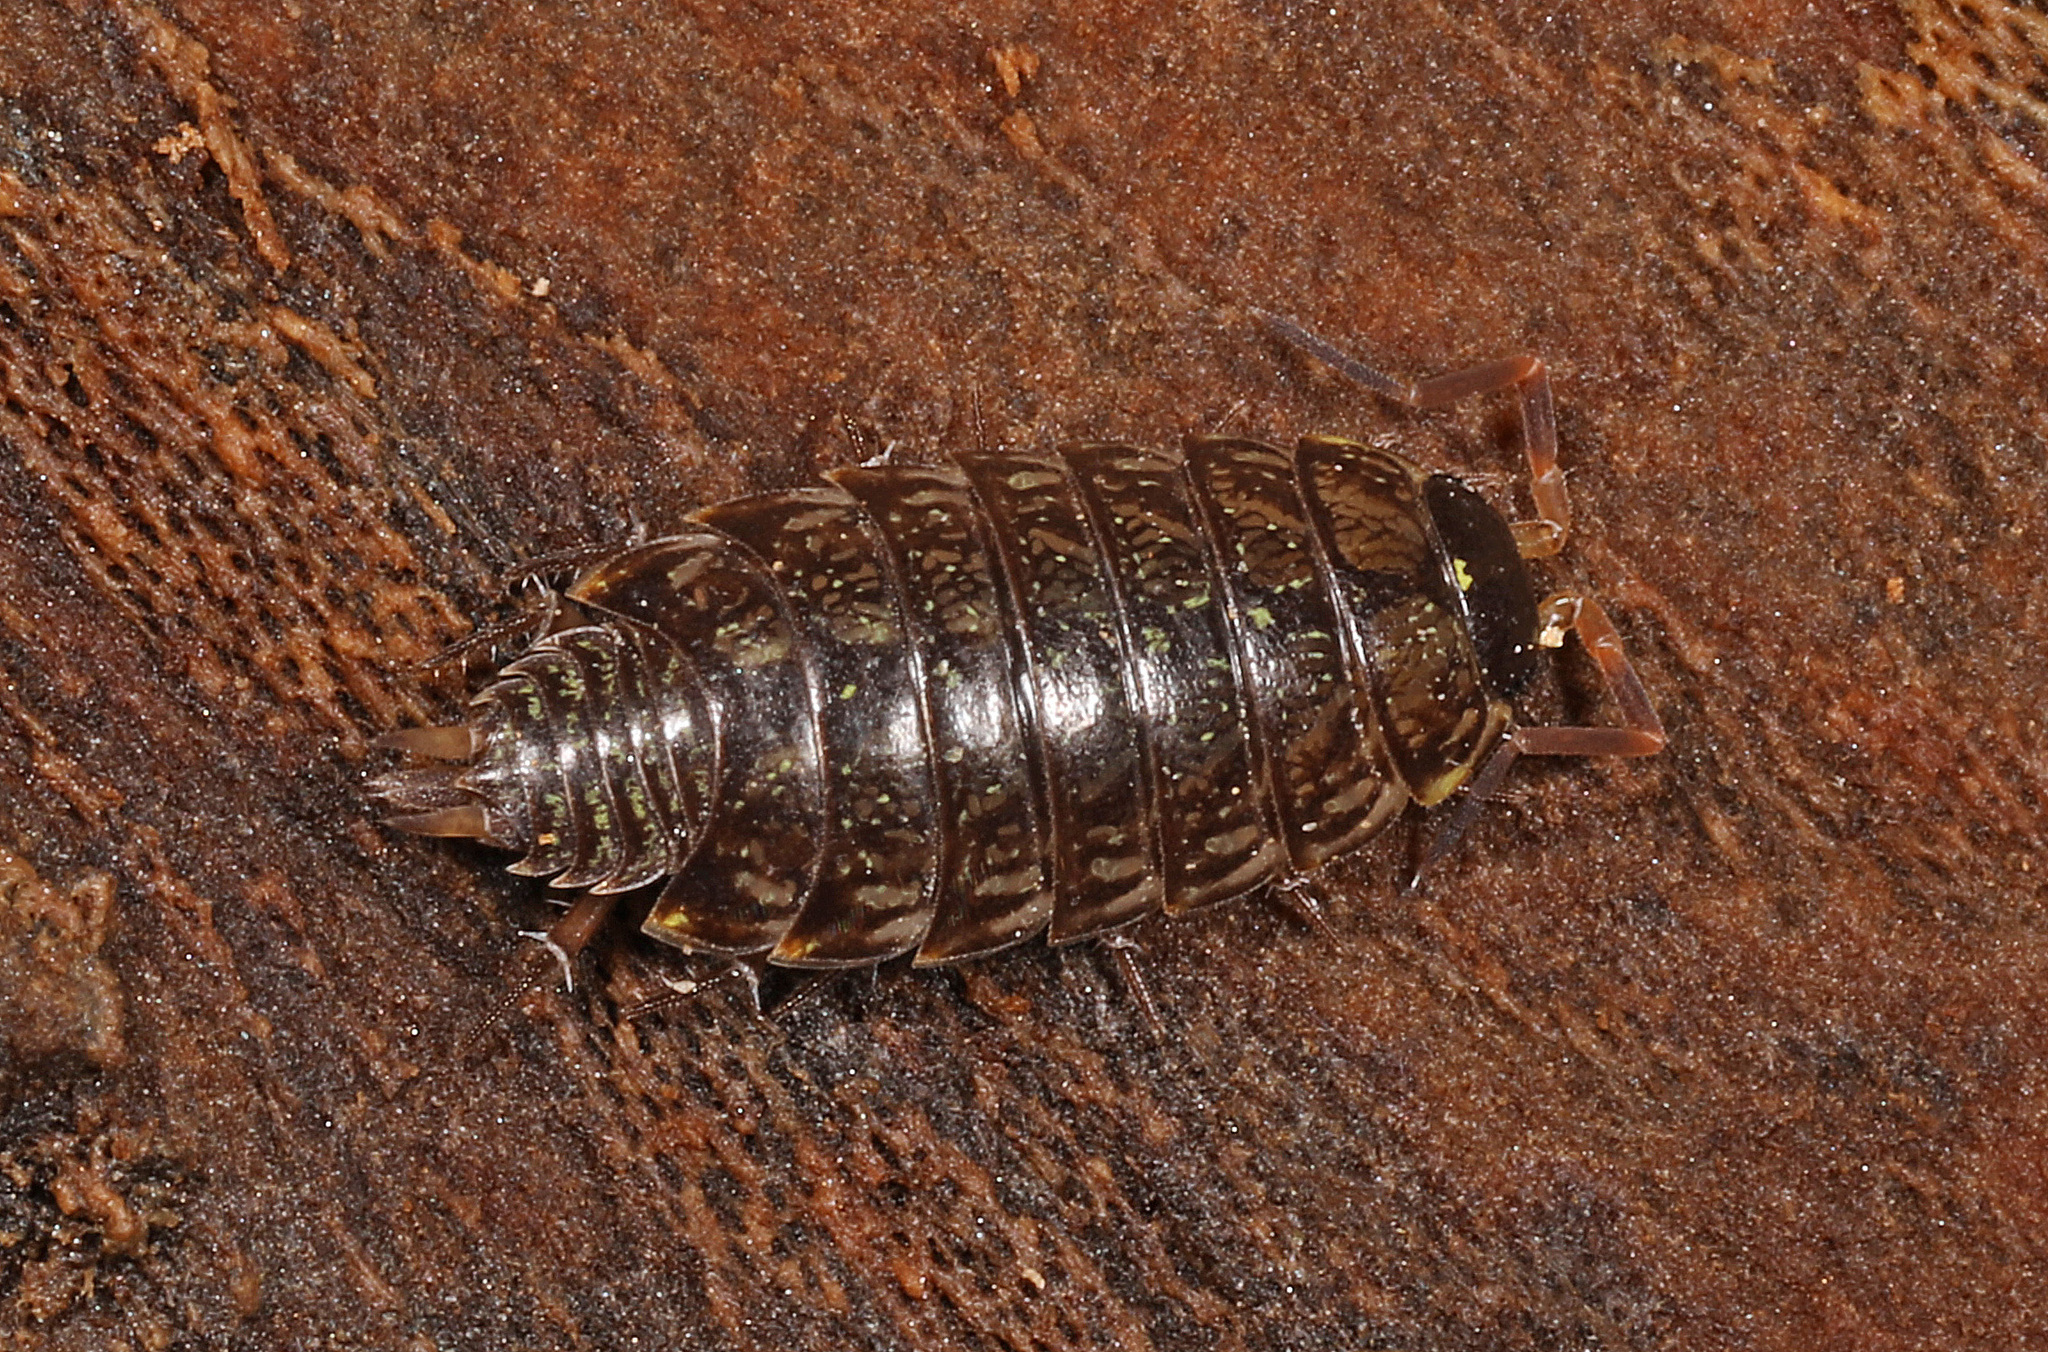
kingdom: Animalia
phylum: Arthropoda
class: Malacostraca
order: Isopoda
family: Philosciidae
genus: Philoscia
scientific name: Philoscia muscorum
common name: Common striped woodlouse
